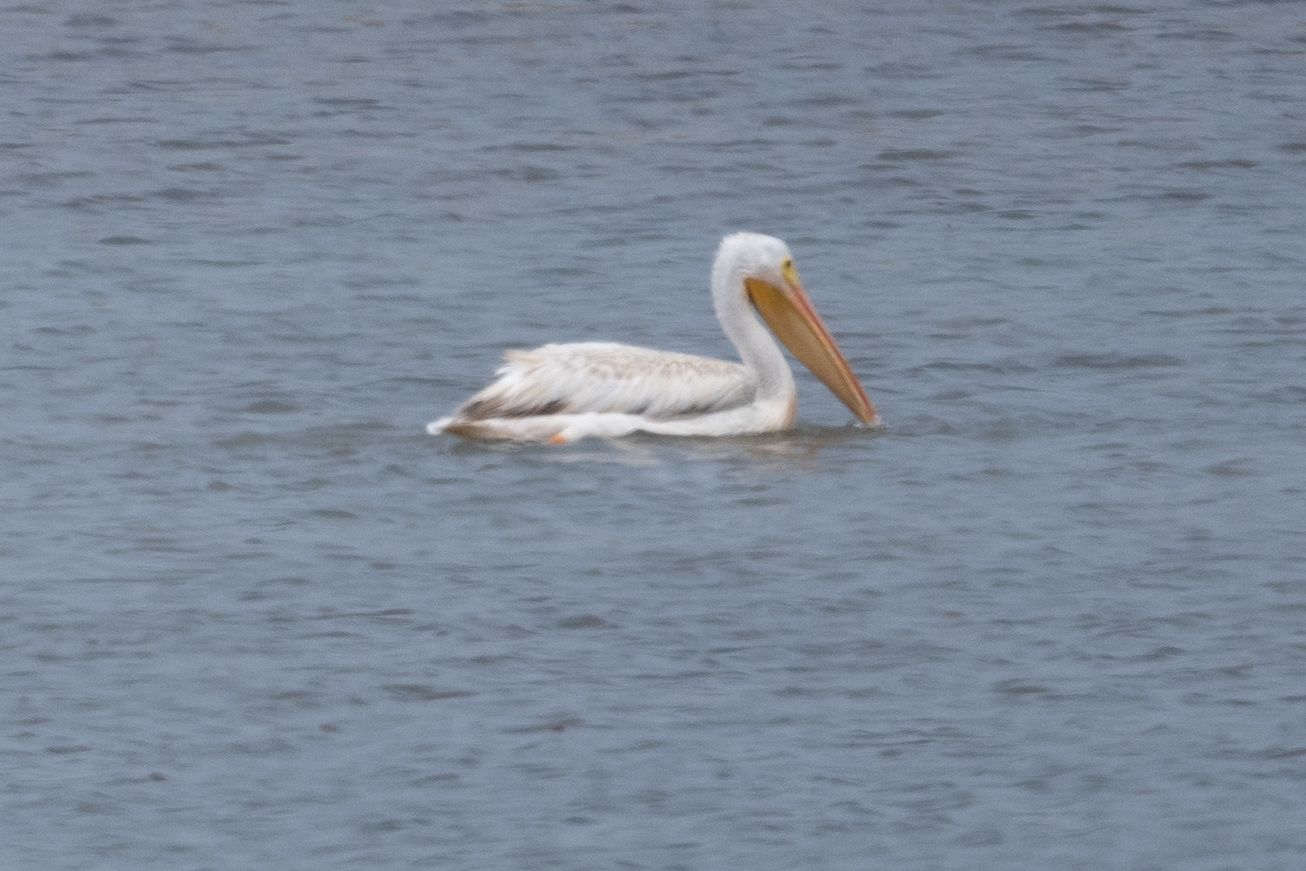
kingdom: Animalia
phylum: Chordata
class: Aves
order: Pelecaniformes
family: Pelecanidae
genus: Pelecanus
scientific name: Pelecanus erythrorhynchos
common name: American white pelican
